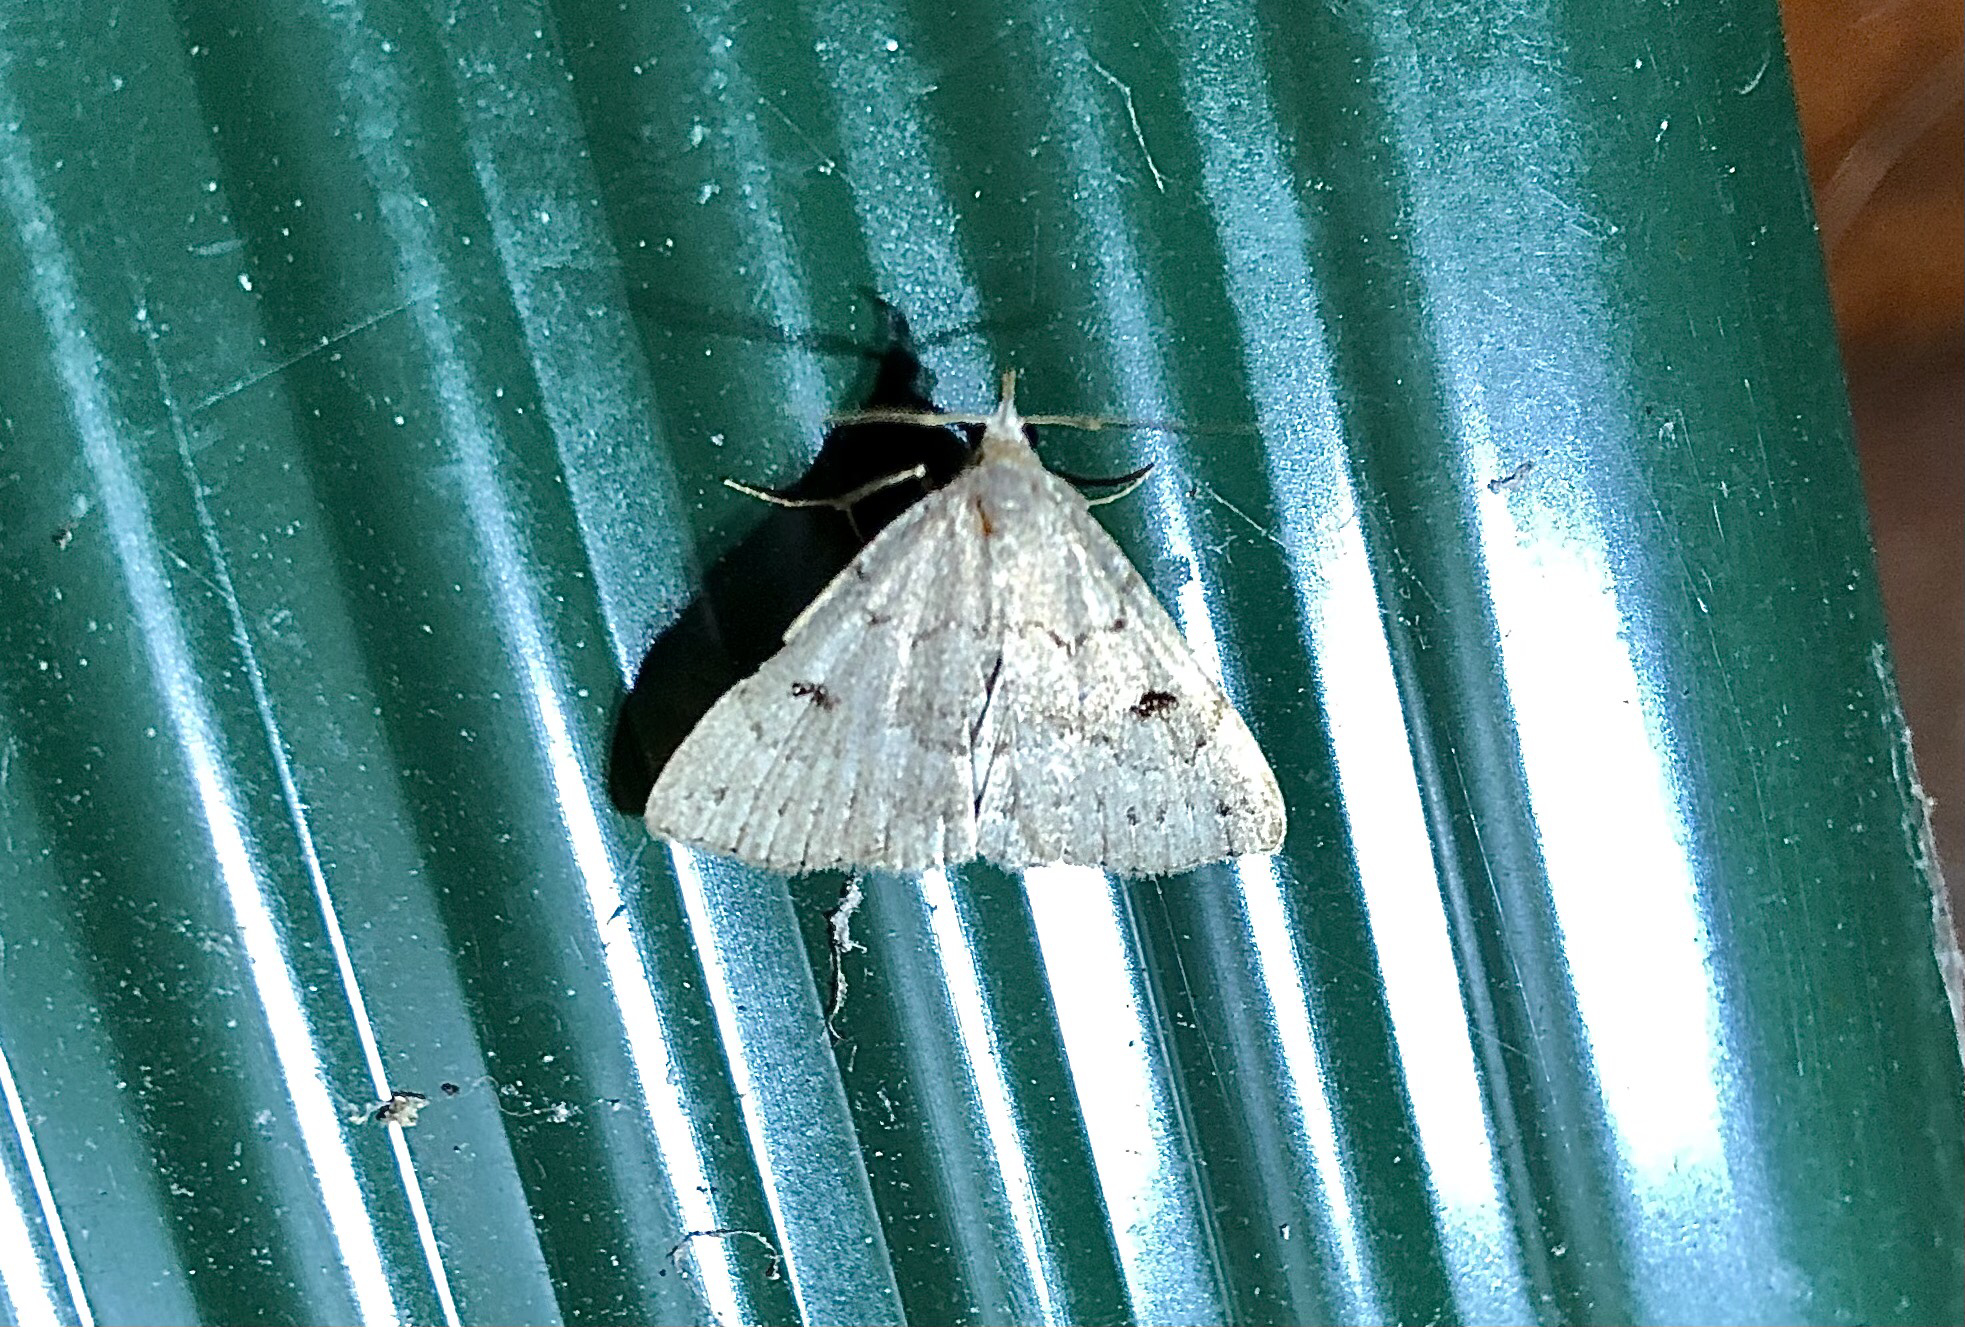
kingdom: Animalia
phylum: Arthropoda
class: Insecta
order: Lepidoptera
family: Erebidae
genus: Macrochilo
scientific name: Macrochilo morbidalis
